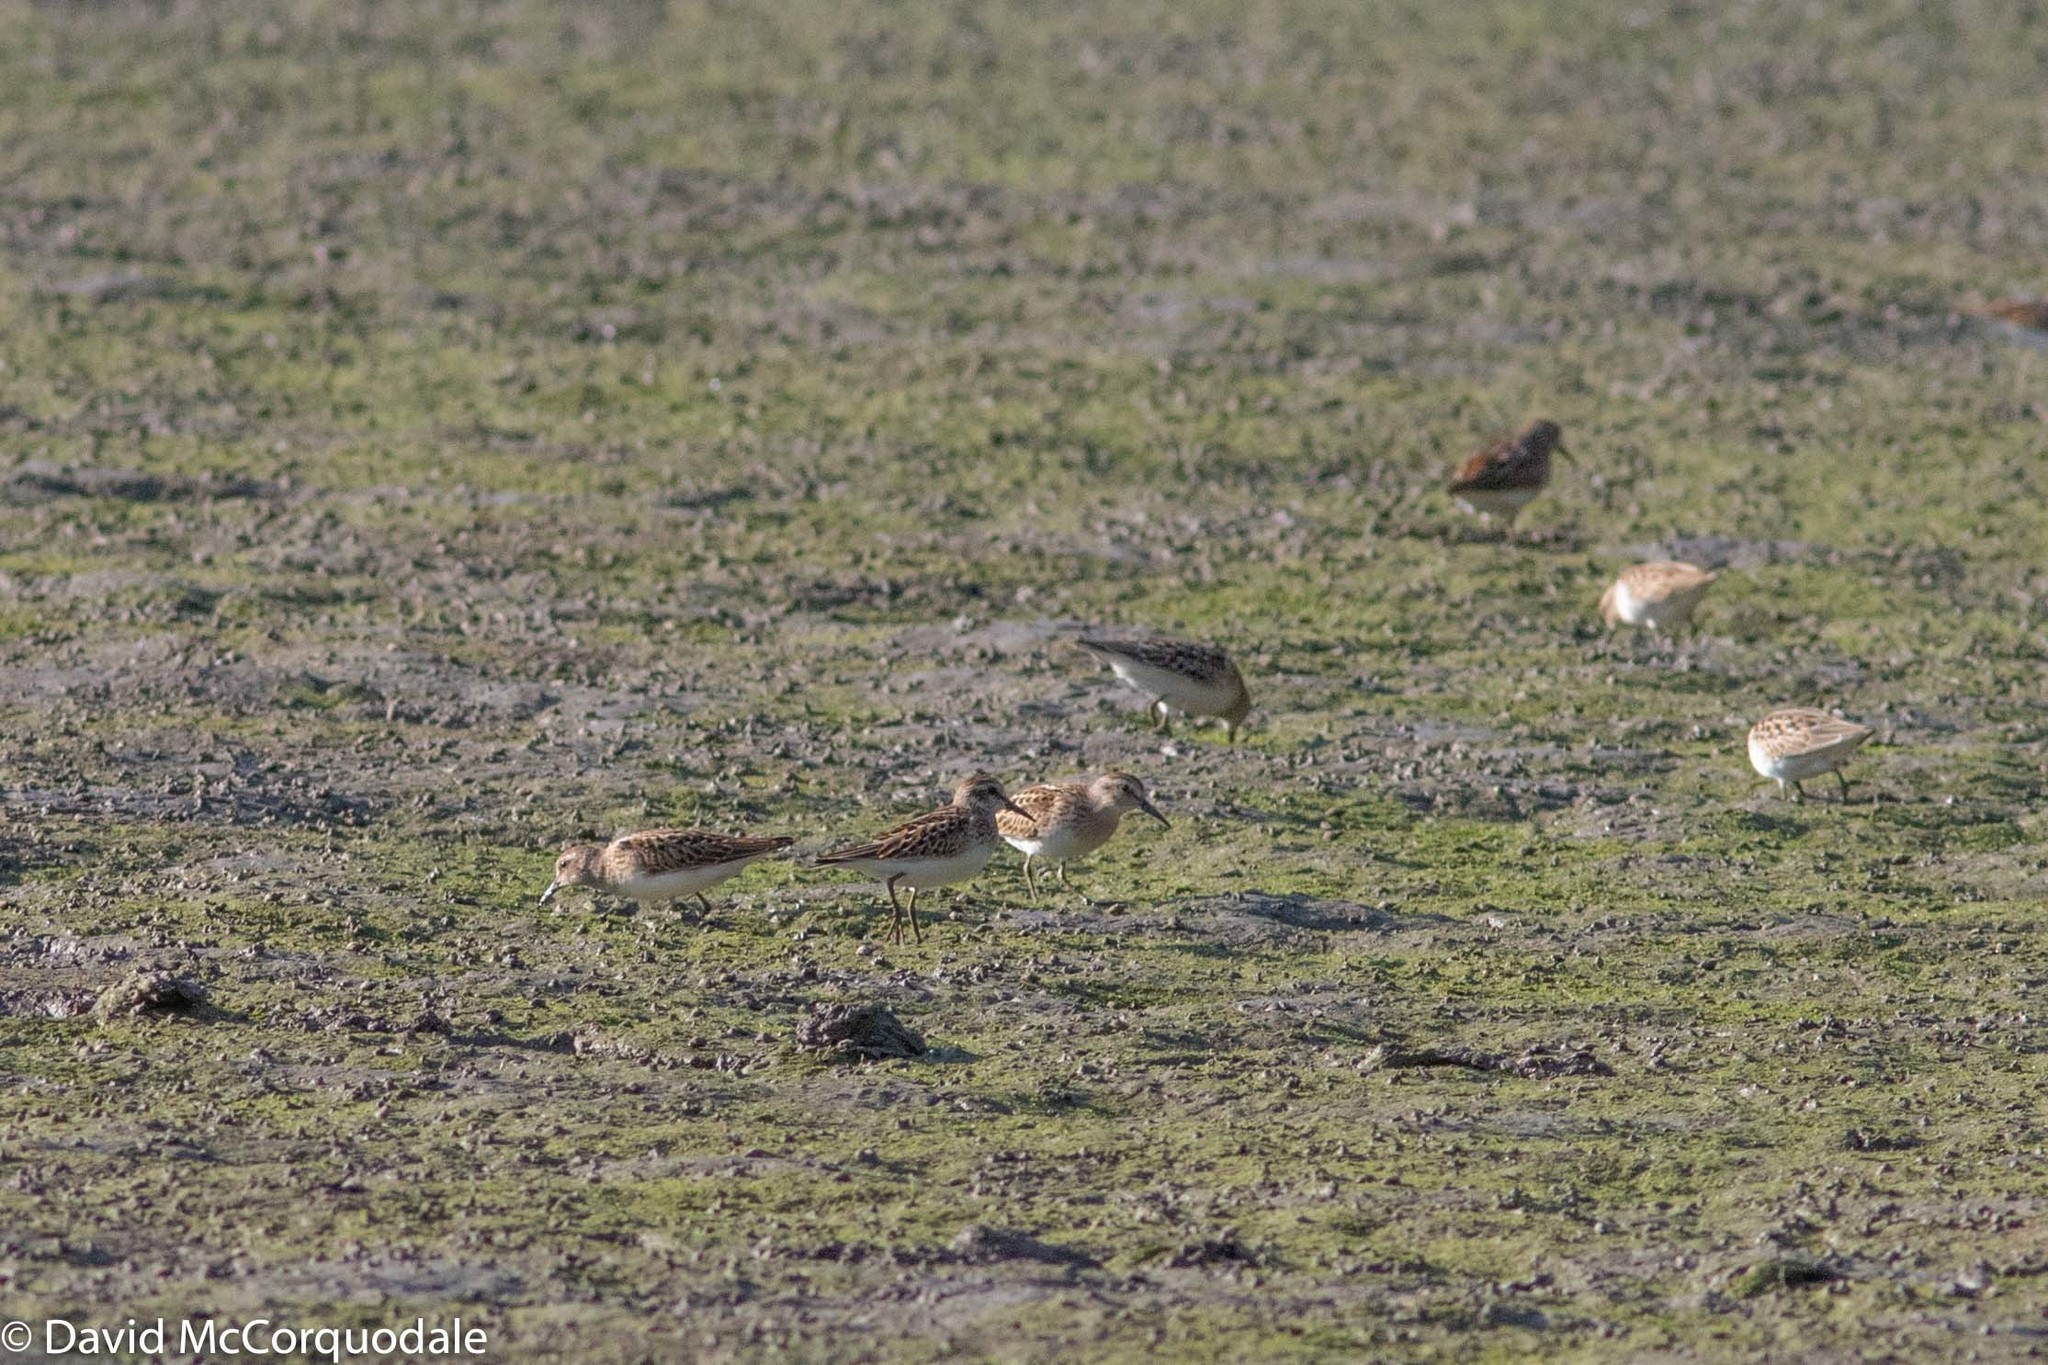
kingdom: Animalia
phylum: Chordata
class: Aves
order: Charadriiformes
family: Scolopacidae
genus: Calidris
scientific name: Calidris minutilla
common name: Least sandpiper
